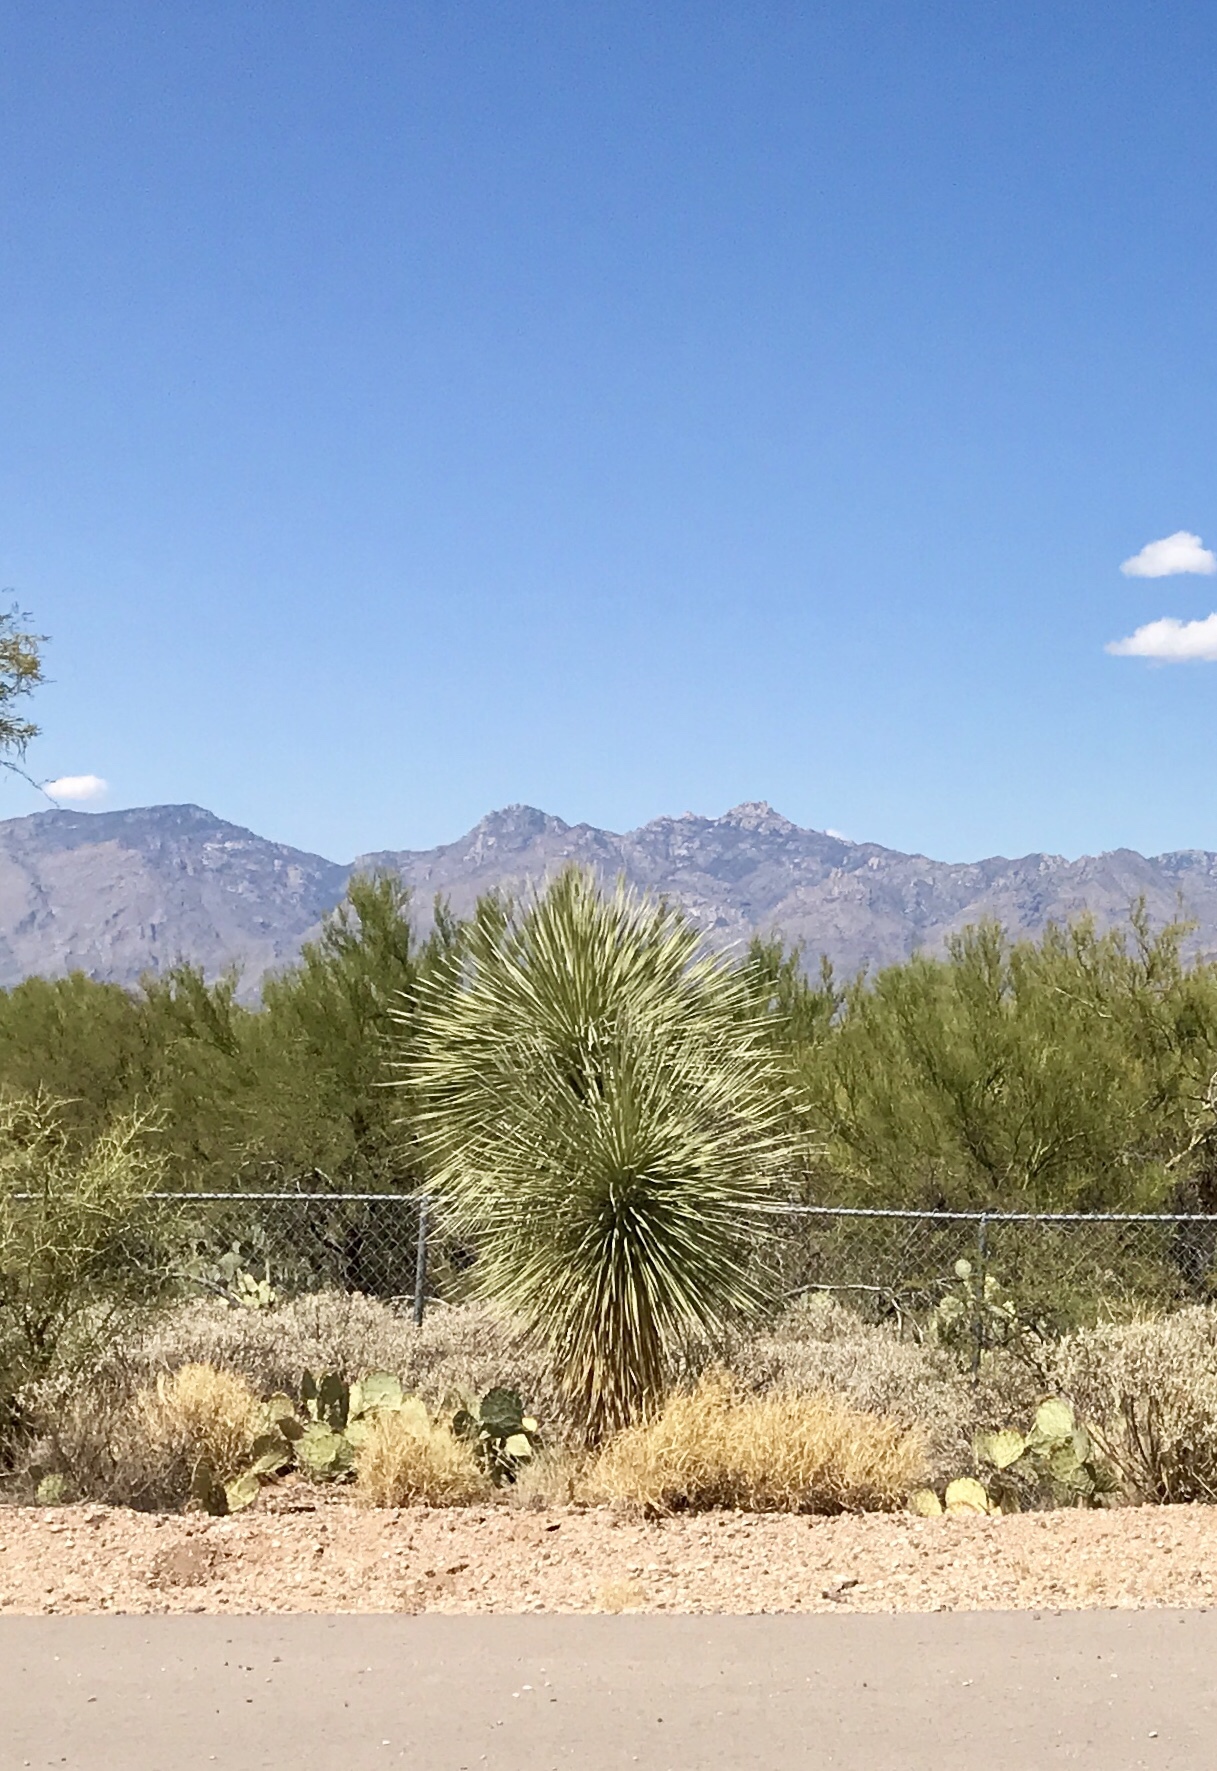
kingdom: Plantae
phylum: Tracheophyta
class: Liliopsida
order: Asparagales
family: Asparagaceae
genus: Yucca
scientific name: Yucca elata
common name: Palmella
